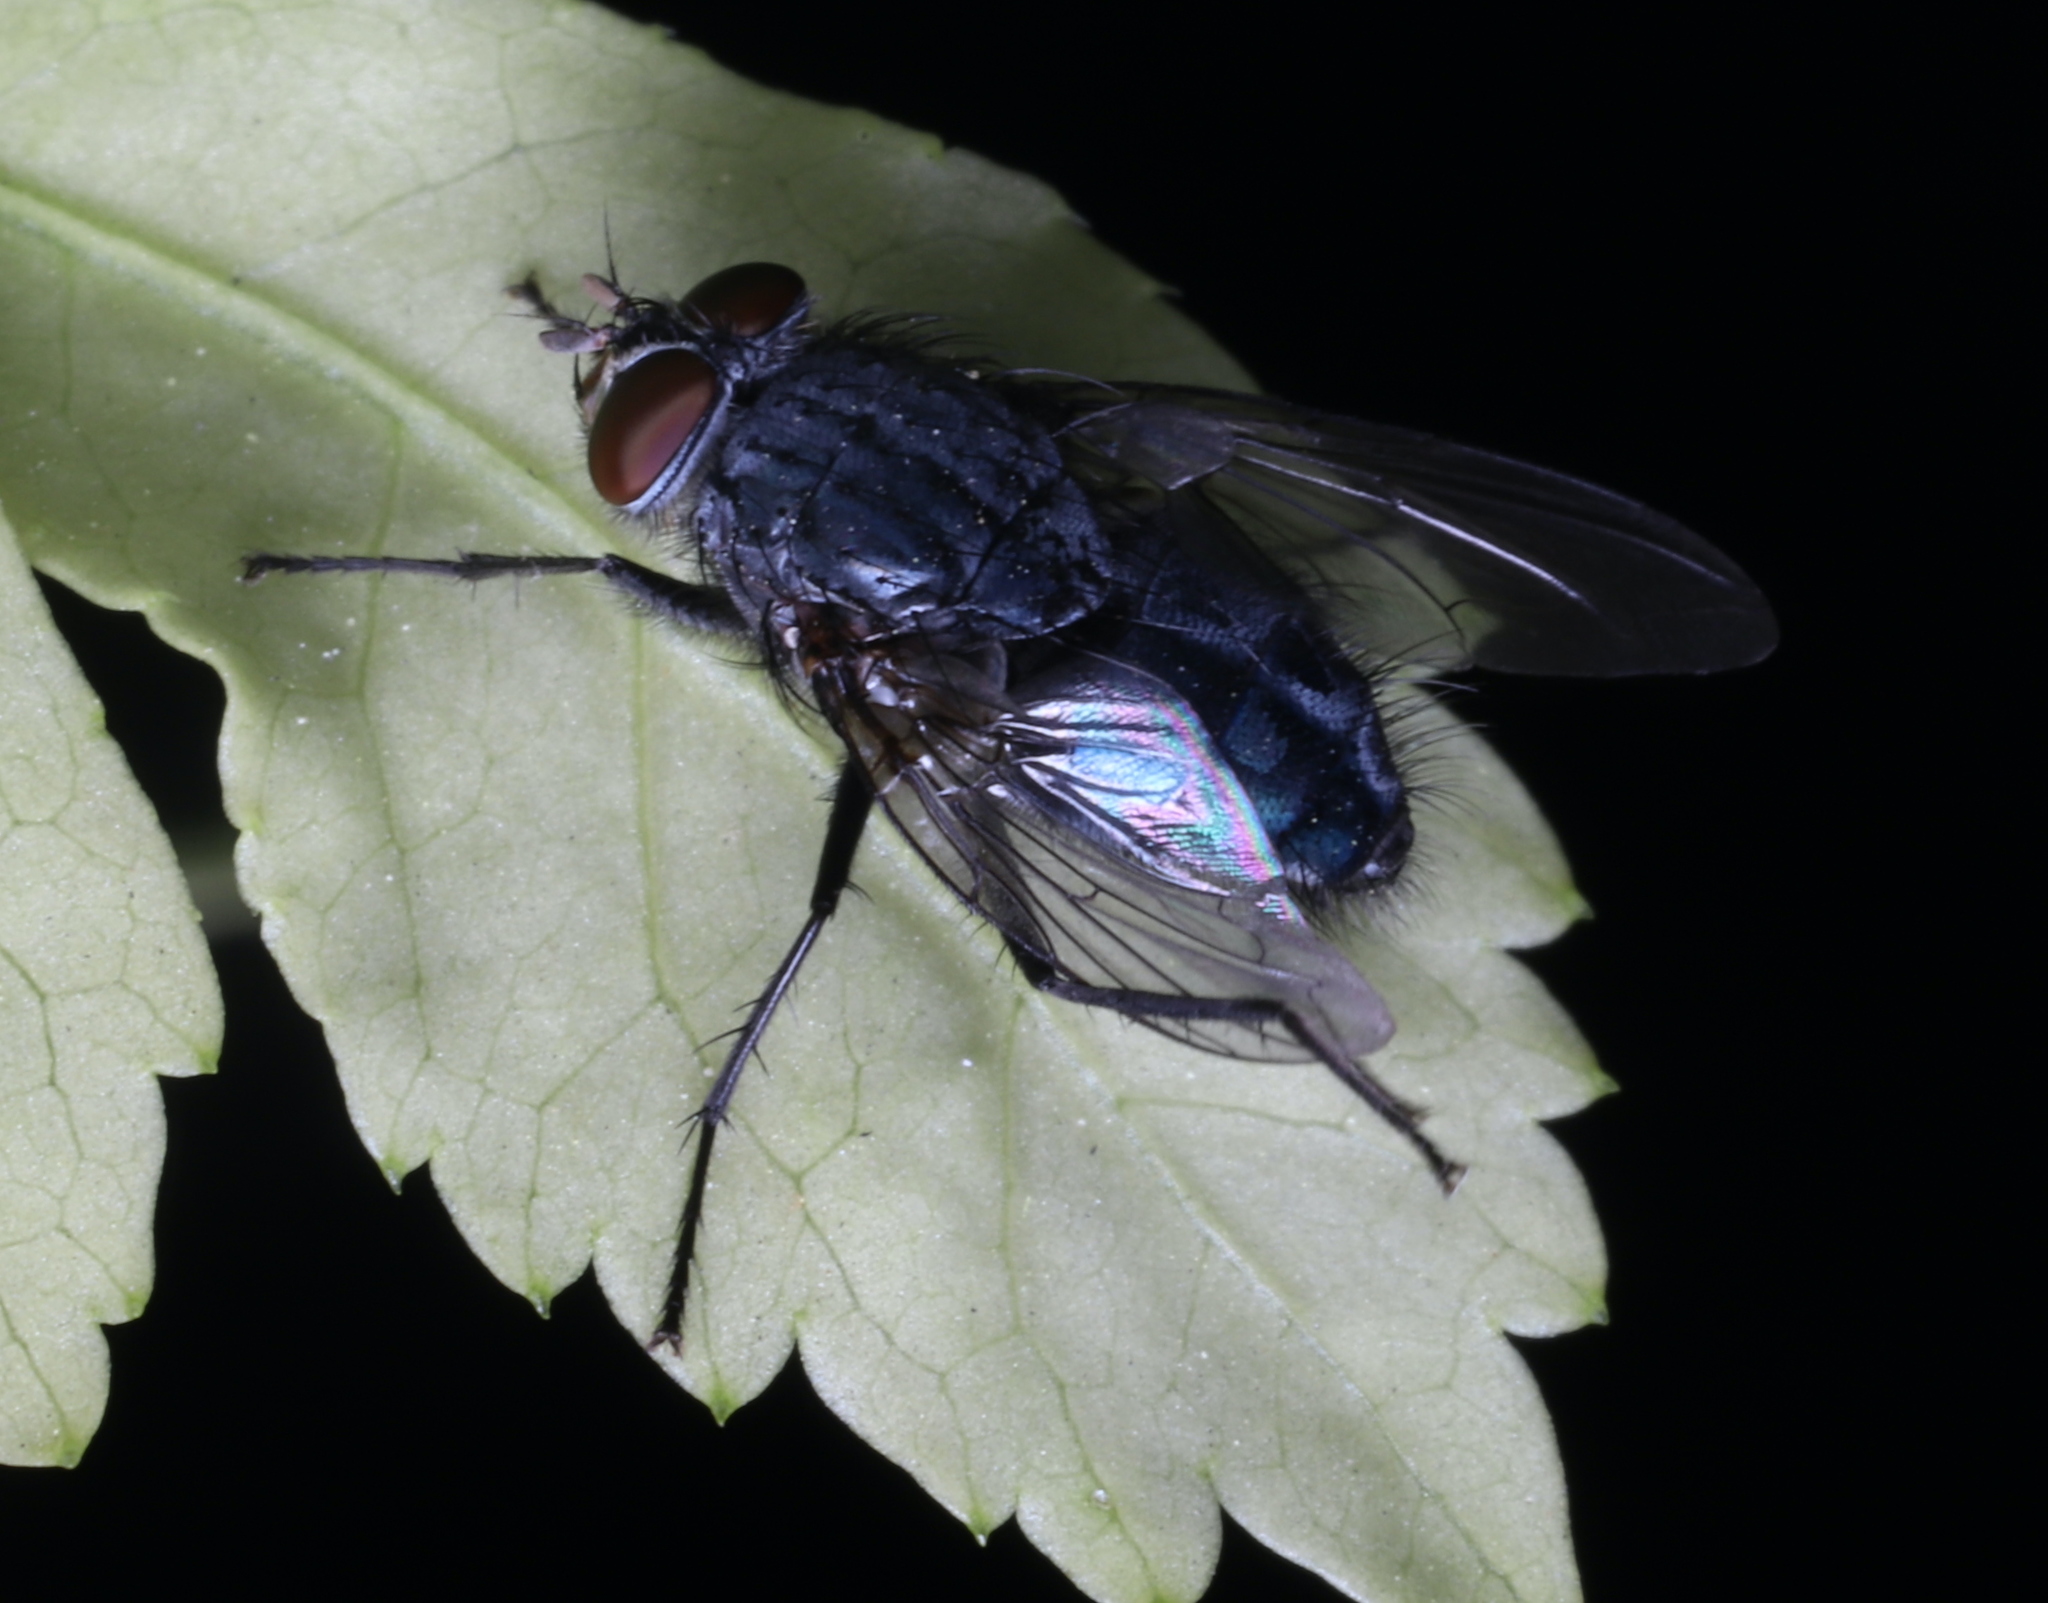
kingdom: Animalia
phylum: Arthropoda
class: Insecta
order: Diptera
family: Calliphoridae
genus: Calliphora
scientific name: Calliphora vicina
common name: Common blow flie
